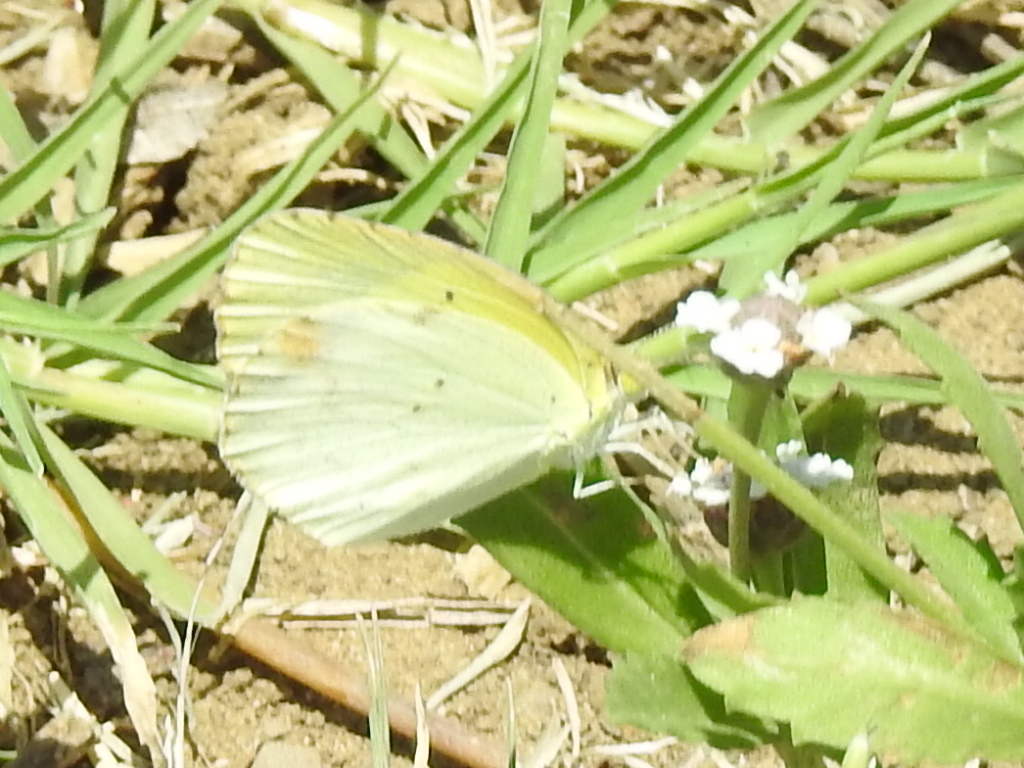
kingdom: Animalia
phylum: Arthropoda
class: Insecta
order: Lepidoptera
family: Pieridae
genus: Pyrisitia
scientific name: Pyrisitia lisa
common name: Little yellow
